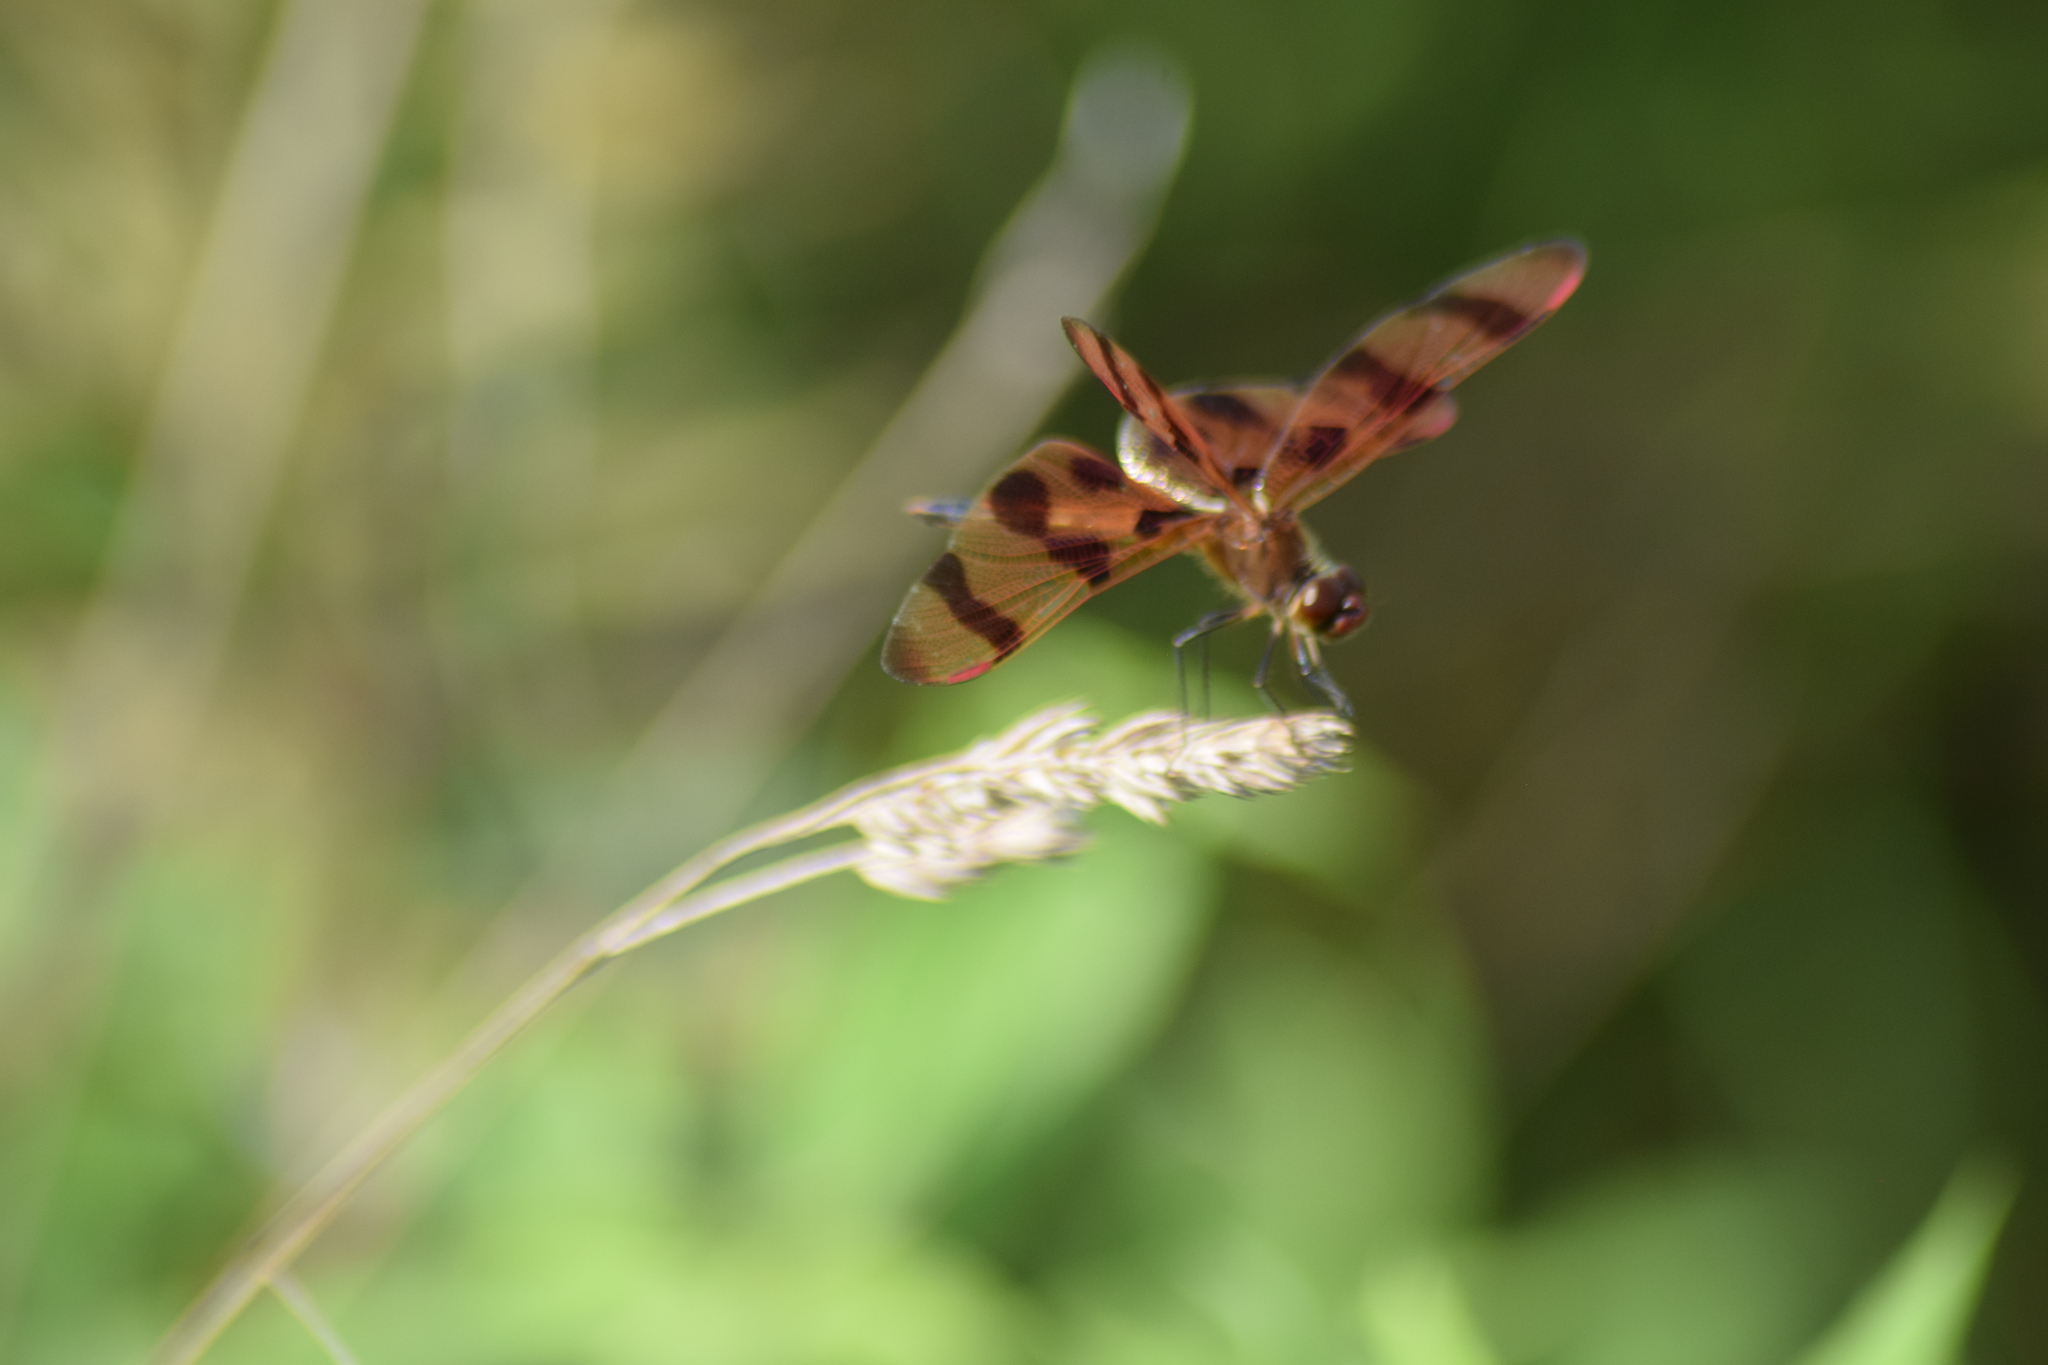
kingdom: Animalia
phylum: Arthropoda
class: Insecta
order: Odonata
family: Libellulidae
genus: Celithemis
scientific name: Celithemis eponina
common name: Halloween pennant
